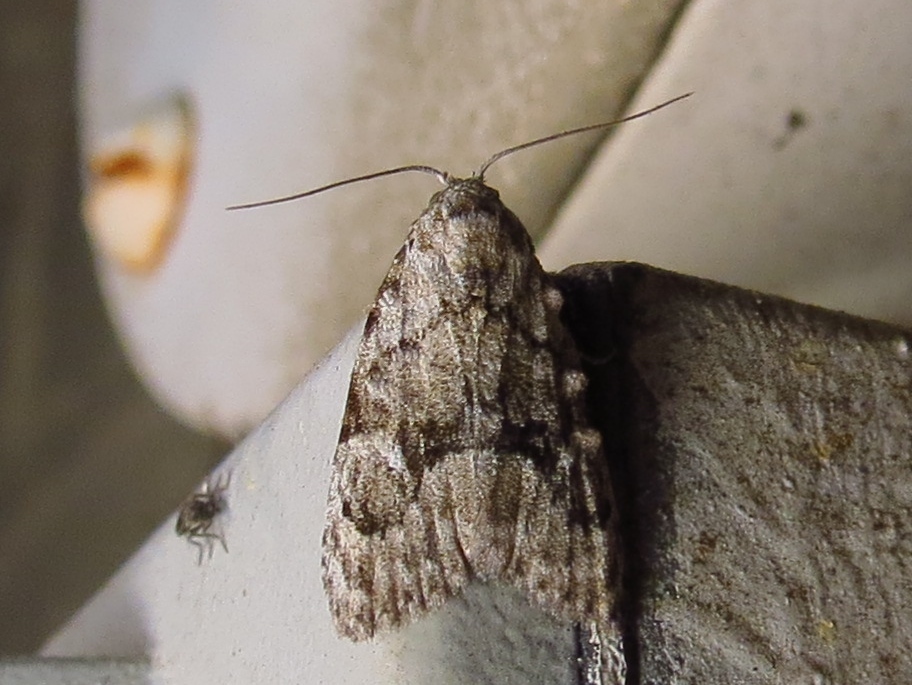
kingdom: Animalia
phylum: Arthropoda
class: Insecta
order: Lepidoptera
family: Nolidae
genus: Meganola
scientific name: Meganola minuscula
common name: Confused meganola moth
